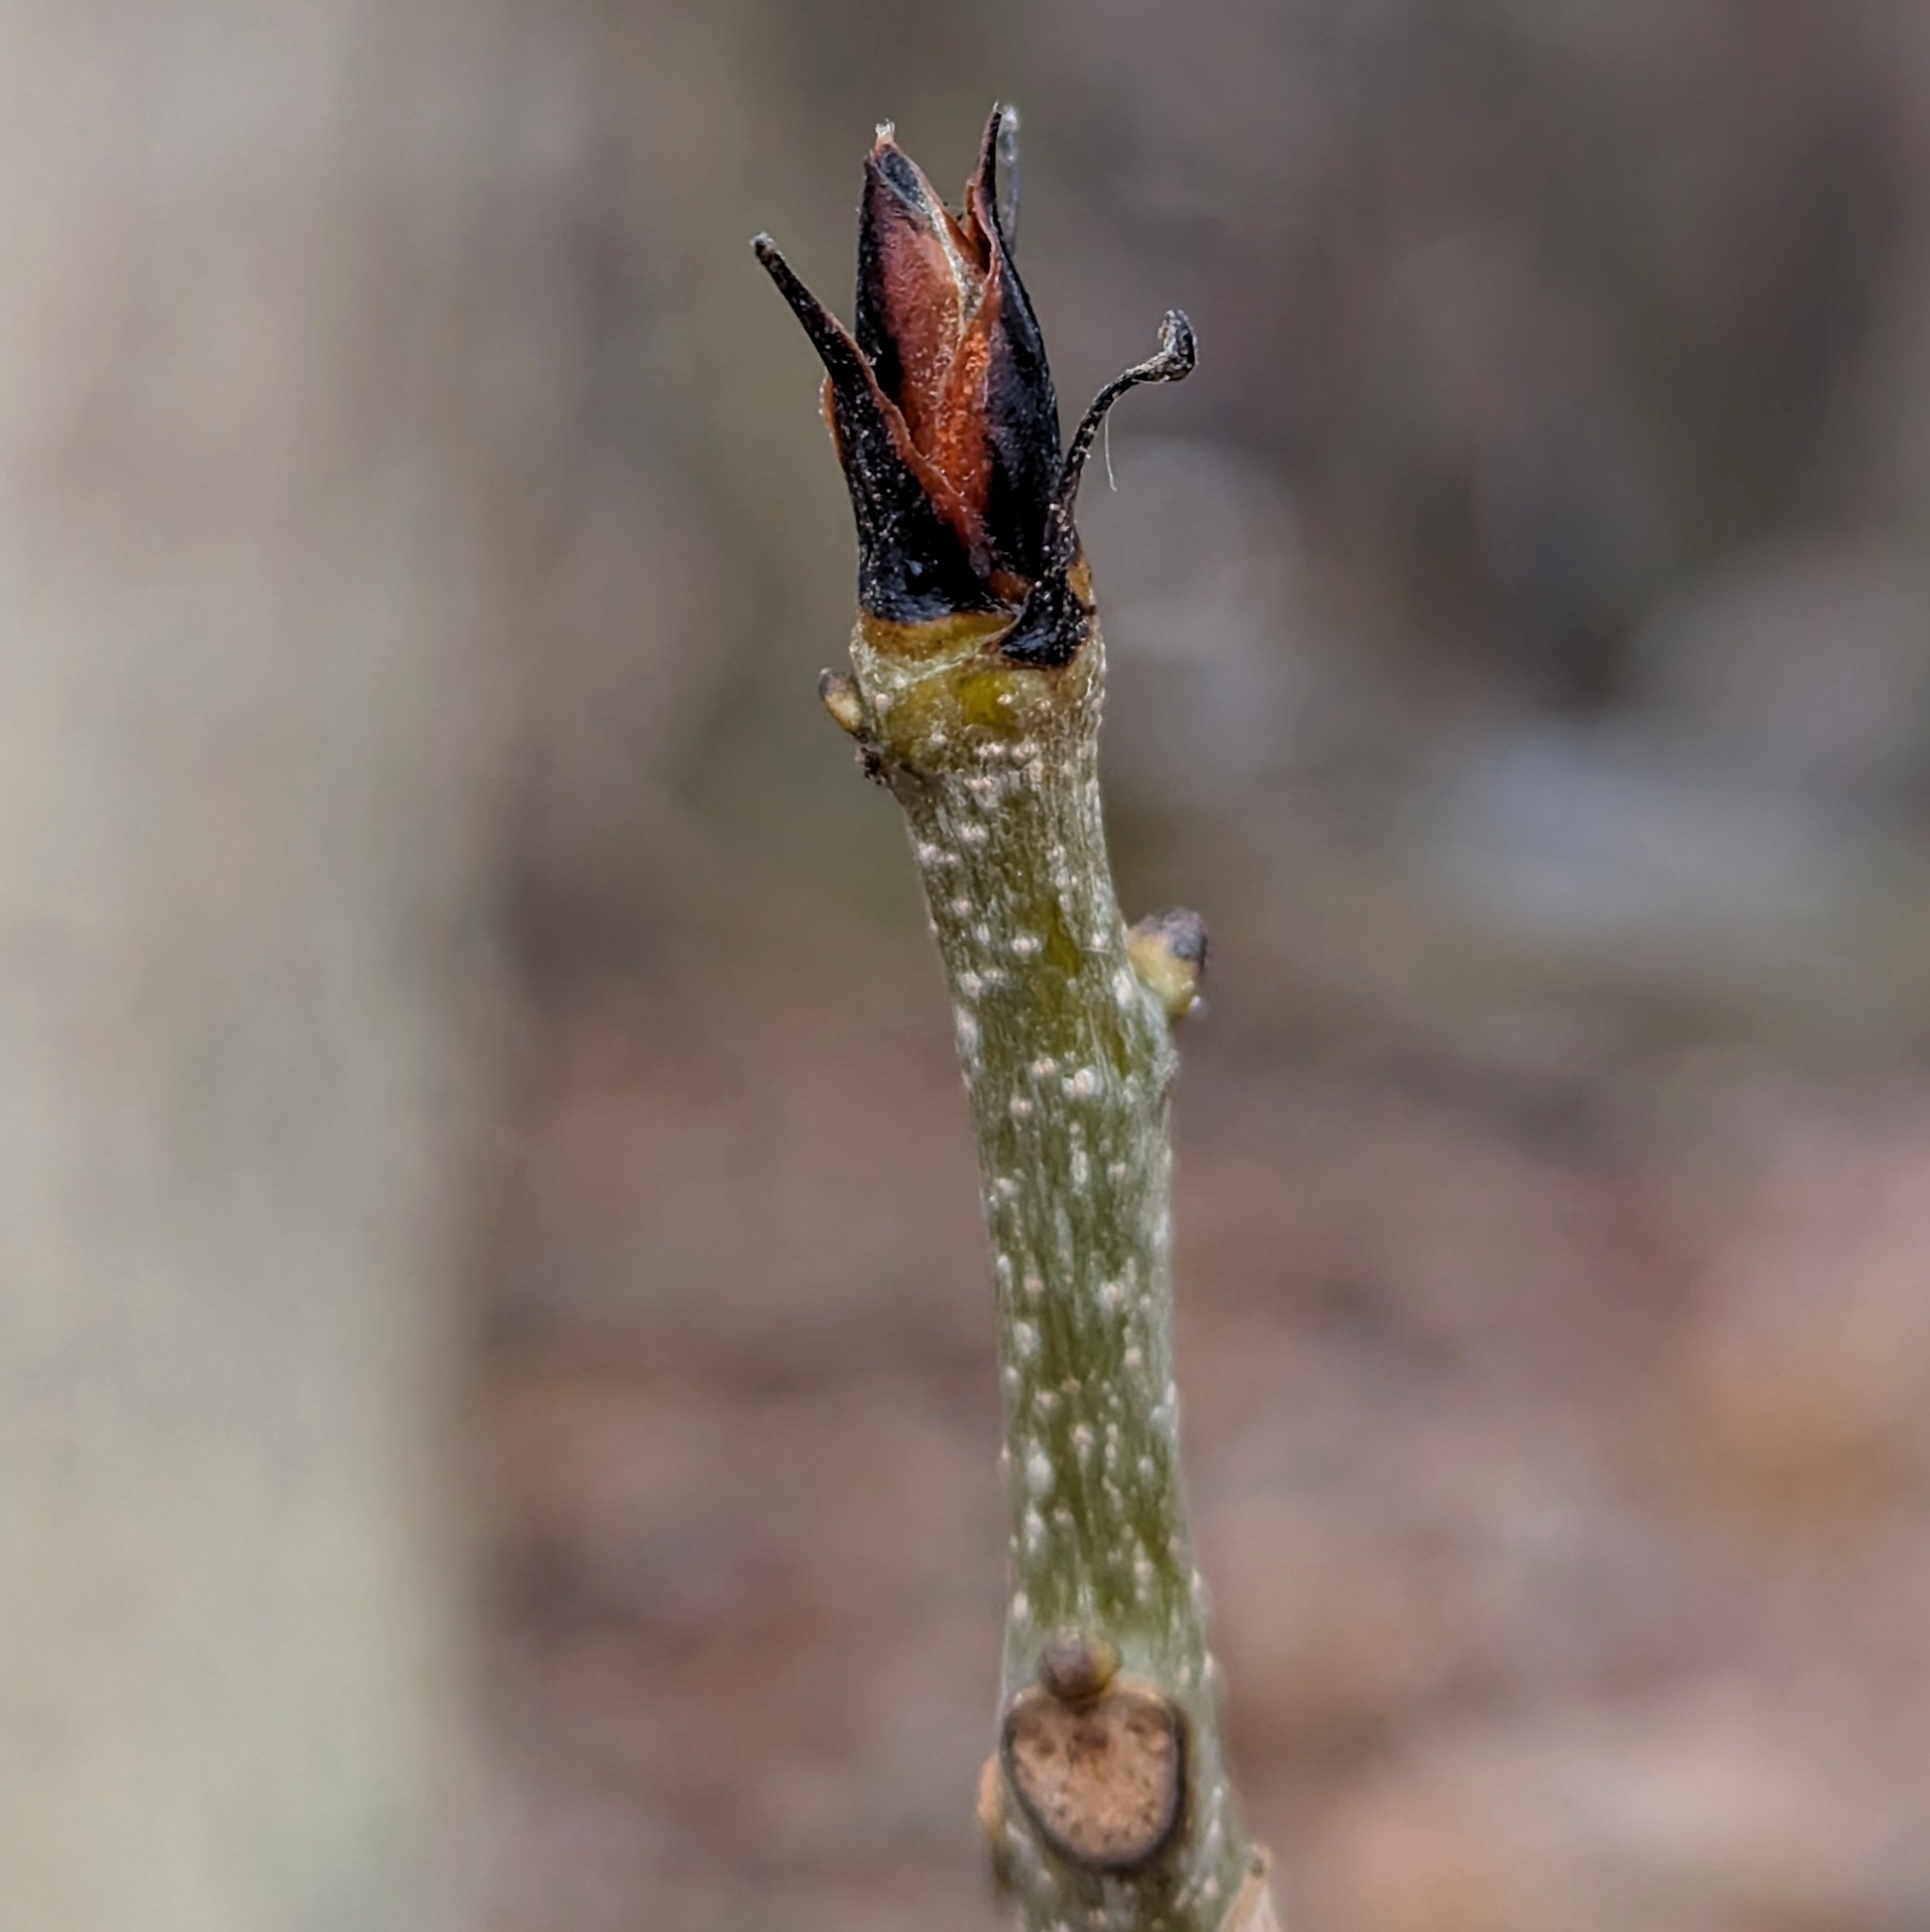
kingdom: Plantae
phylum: Tracheophyta
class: Magnoliopsida
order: Fagales
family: Juglandaceae
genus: Carya
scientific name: Carya ovata
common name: Shagbark hickory
